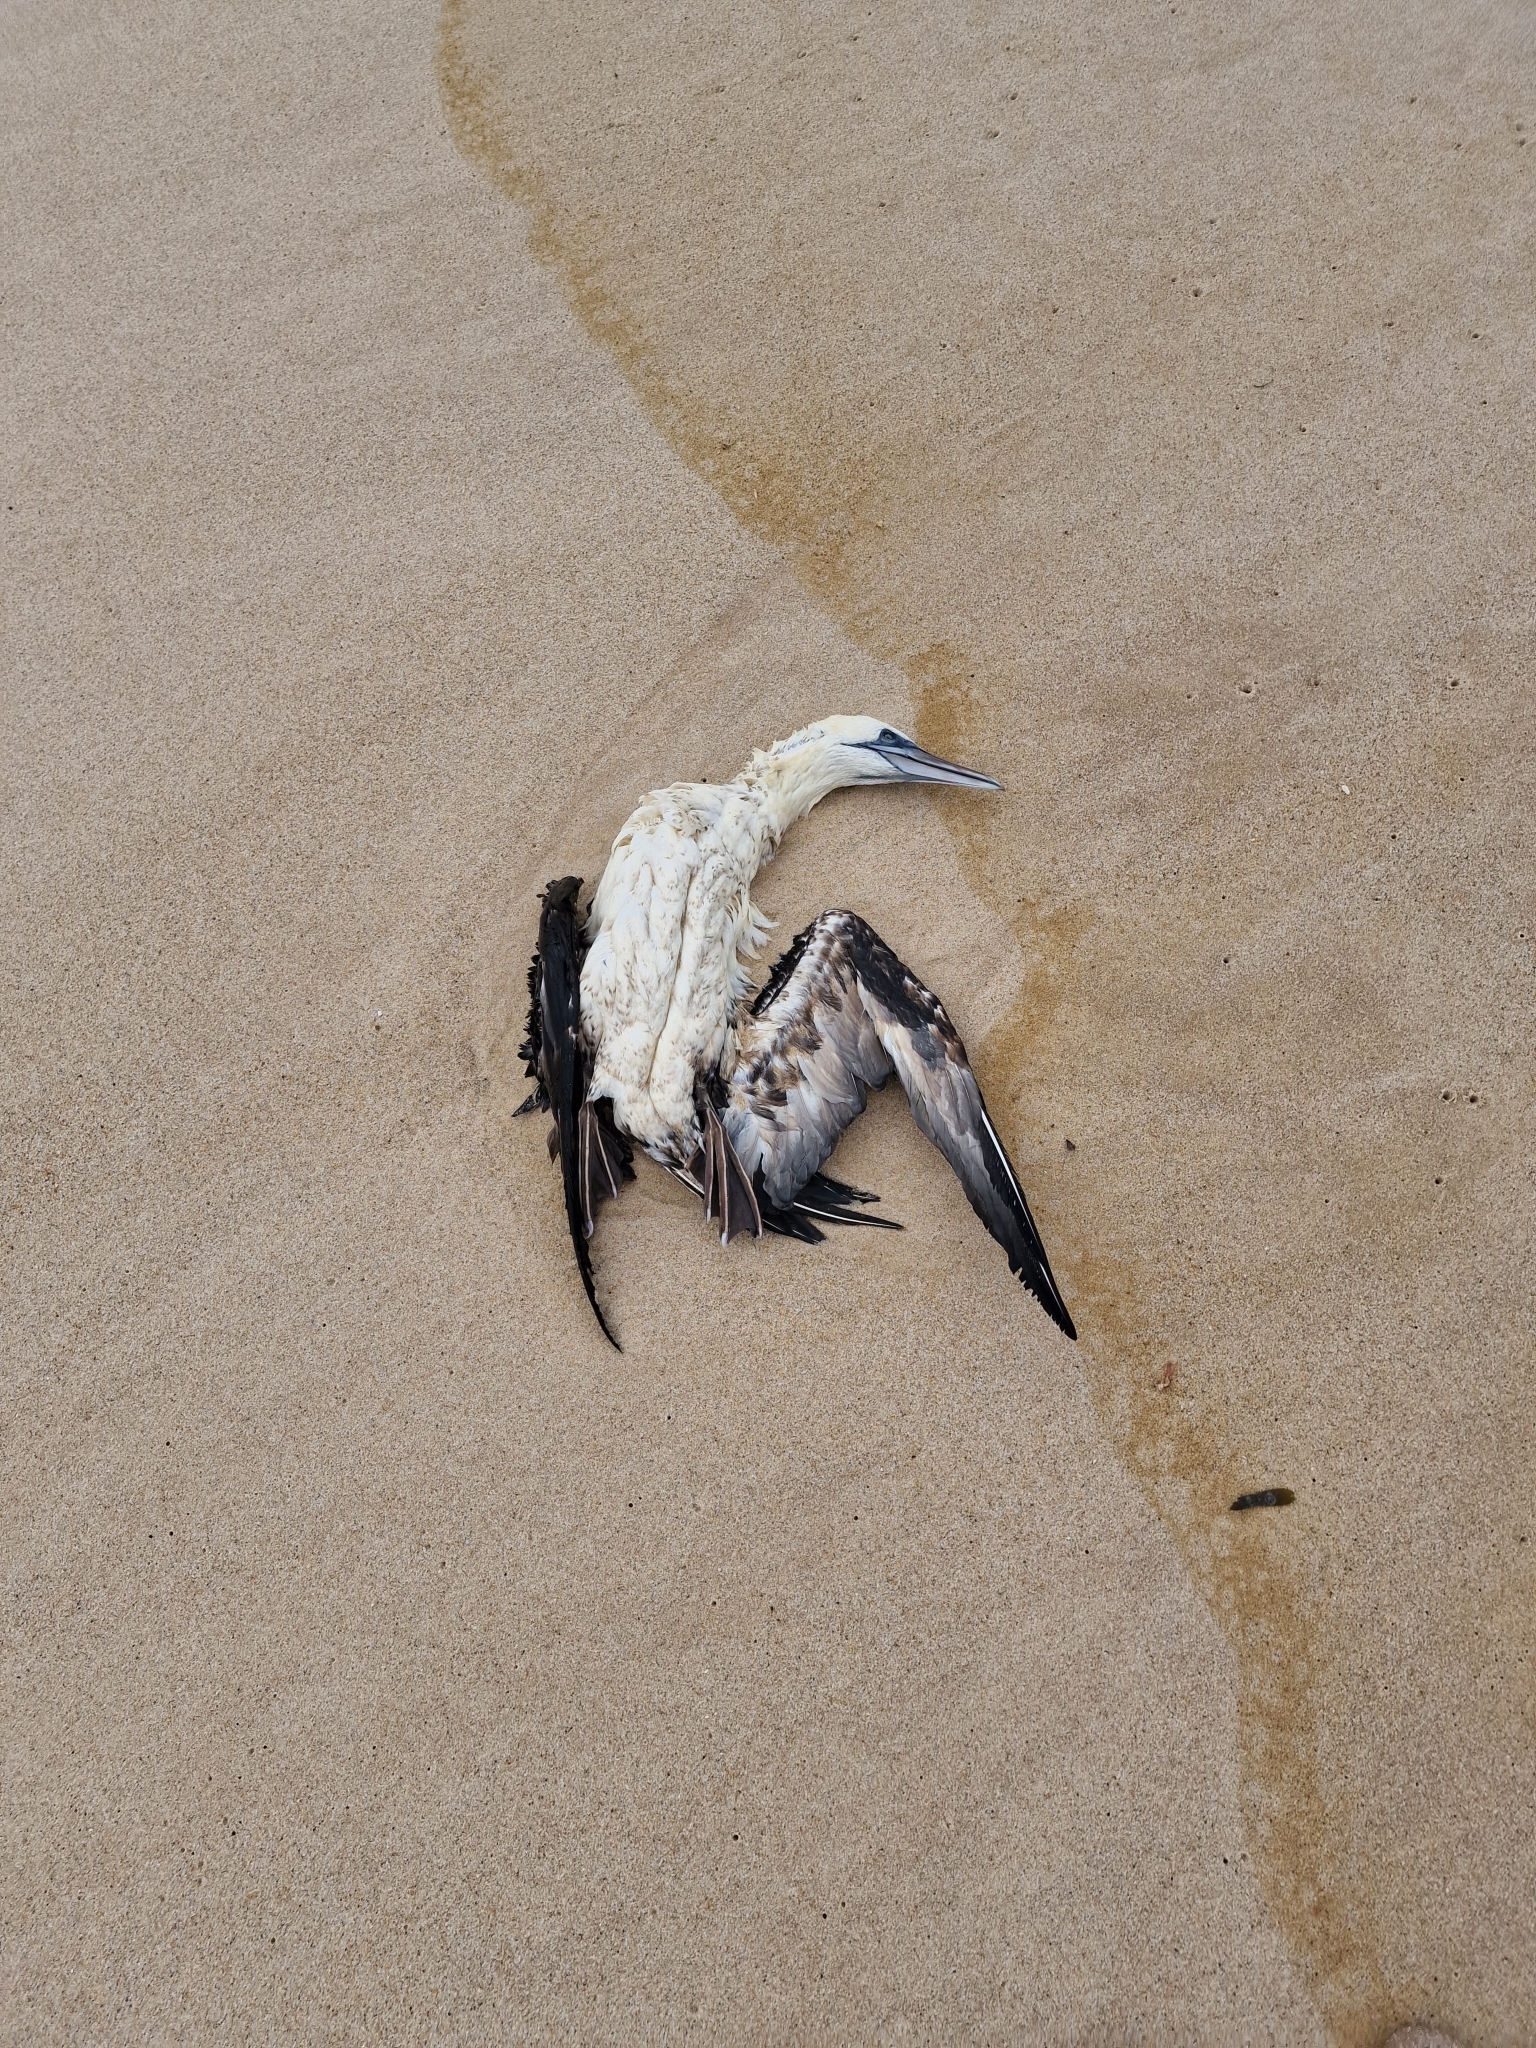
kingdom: Animalia
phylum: Chordata
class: Aves
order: Suliformes
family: Sulidae
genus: Morus
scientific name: Morus bassanus
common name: Northern gannet
